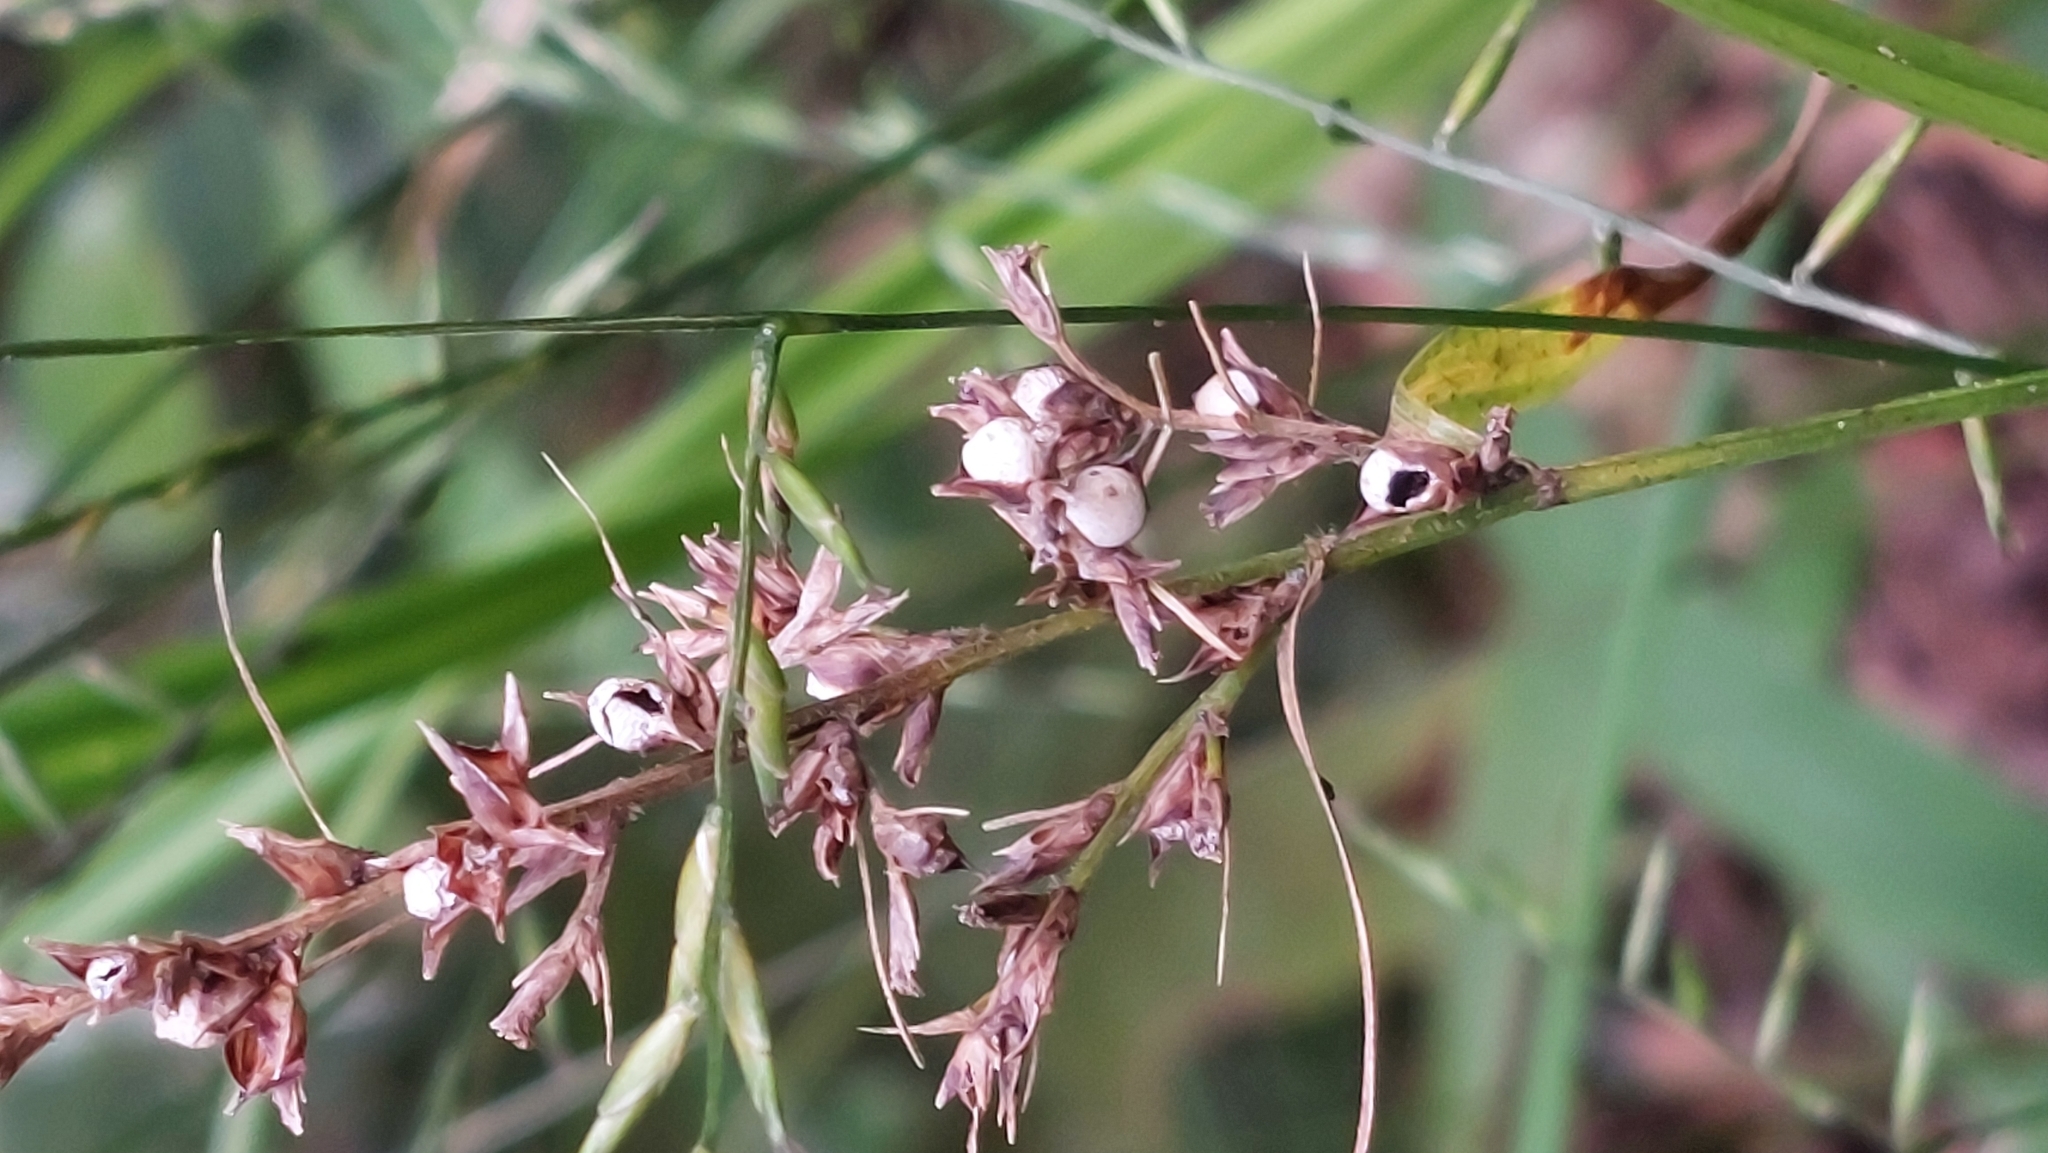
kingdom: Plantae
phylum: Tracheophyta
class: Liliopsida
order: Poales
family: Cyperaceae
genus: Scleria
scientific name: Scleria terrestris
